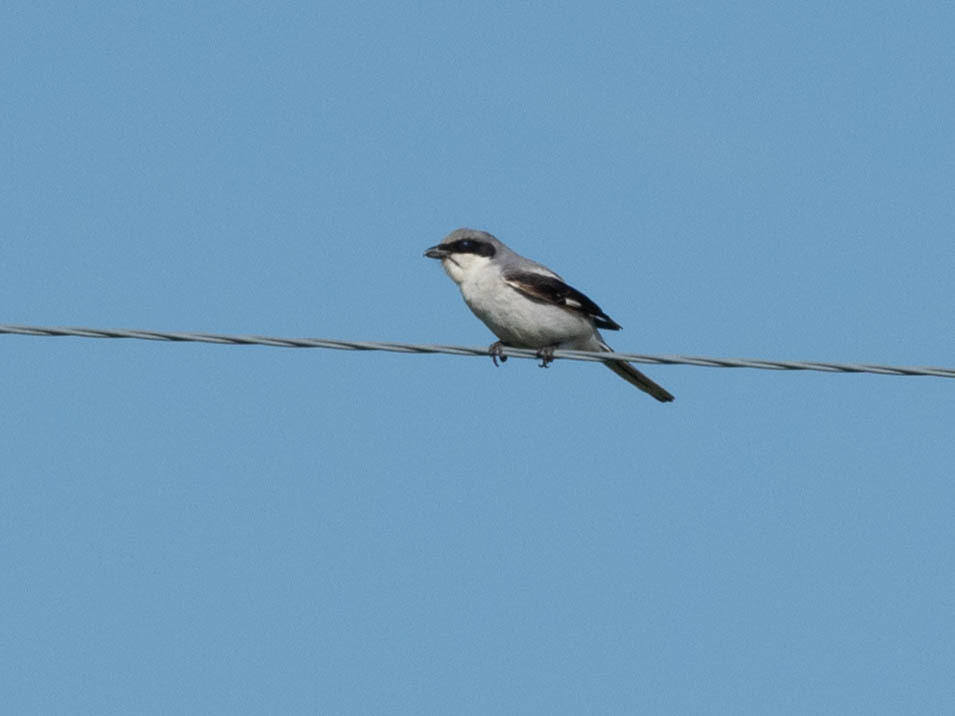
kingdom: Animalia
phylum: Chordata
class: Aves
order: Passeriformes
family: Laniidae
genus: Lanius
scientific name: Lanius ludovicianus
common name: Loggerhead shrike
